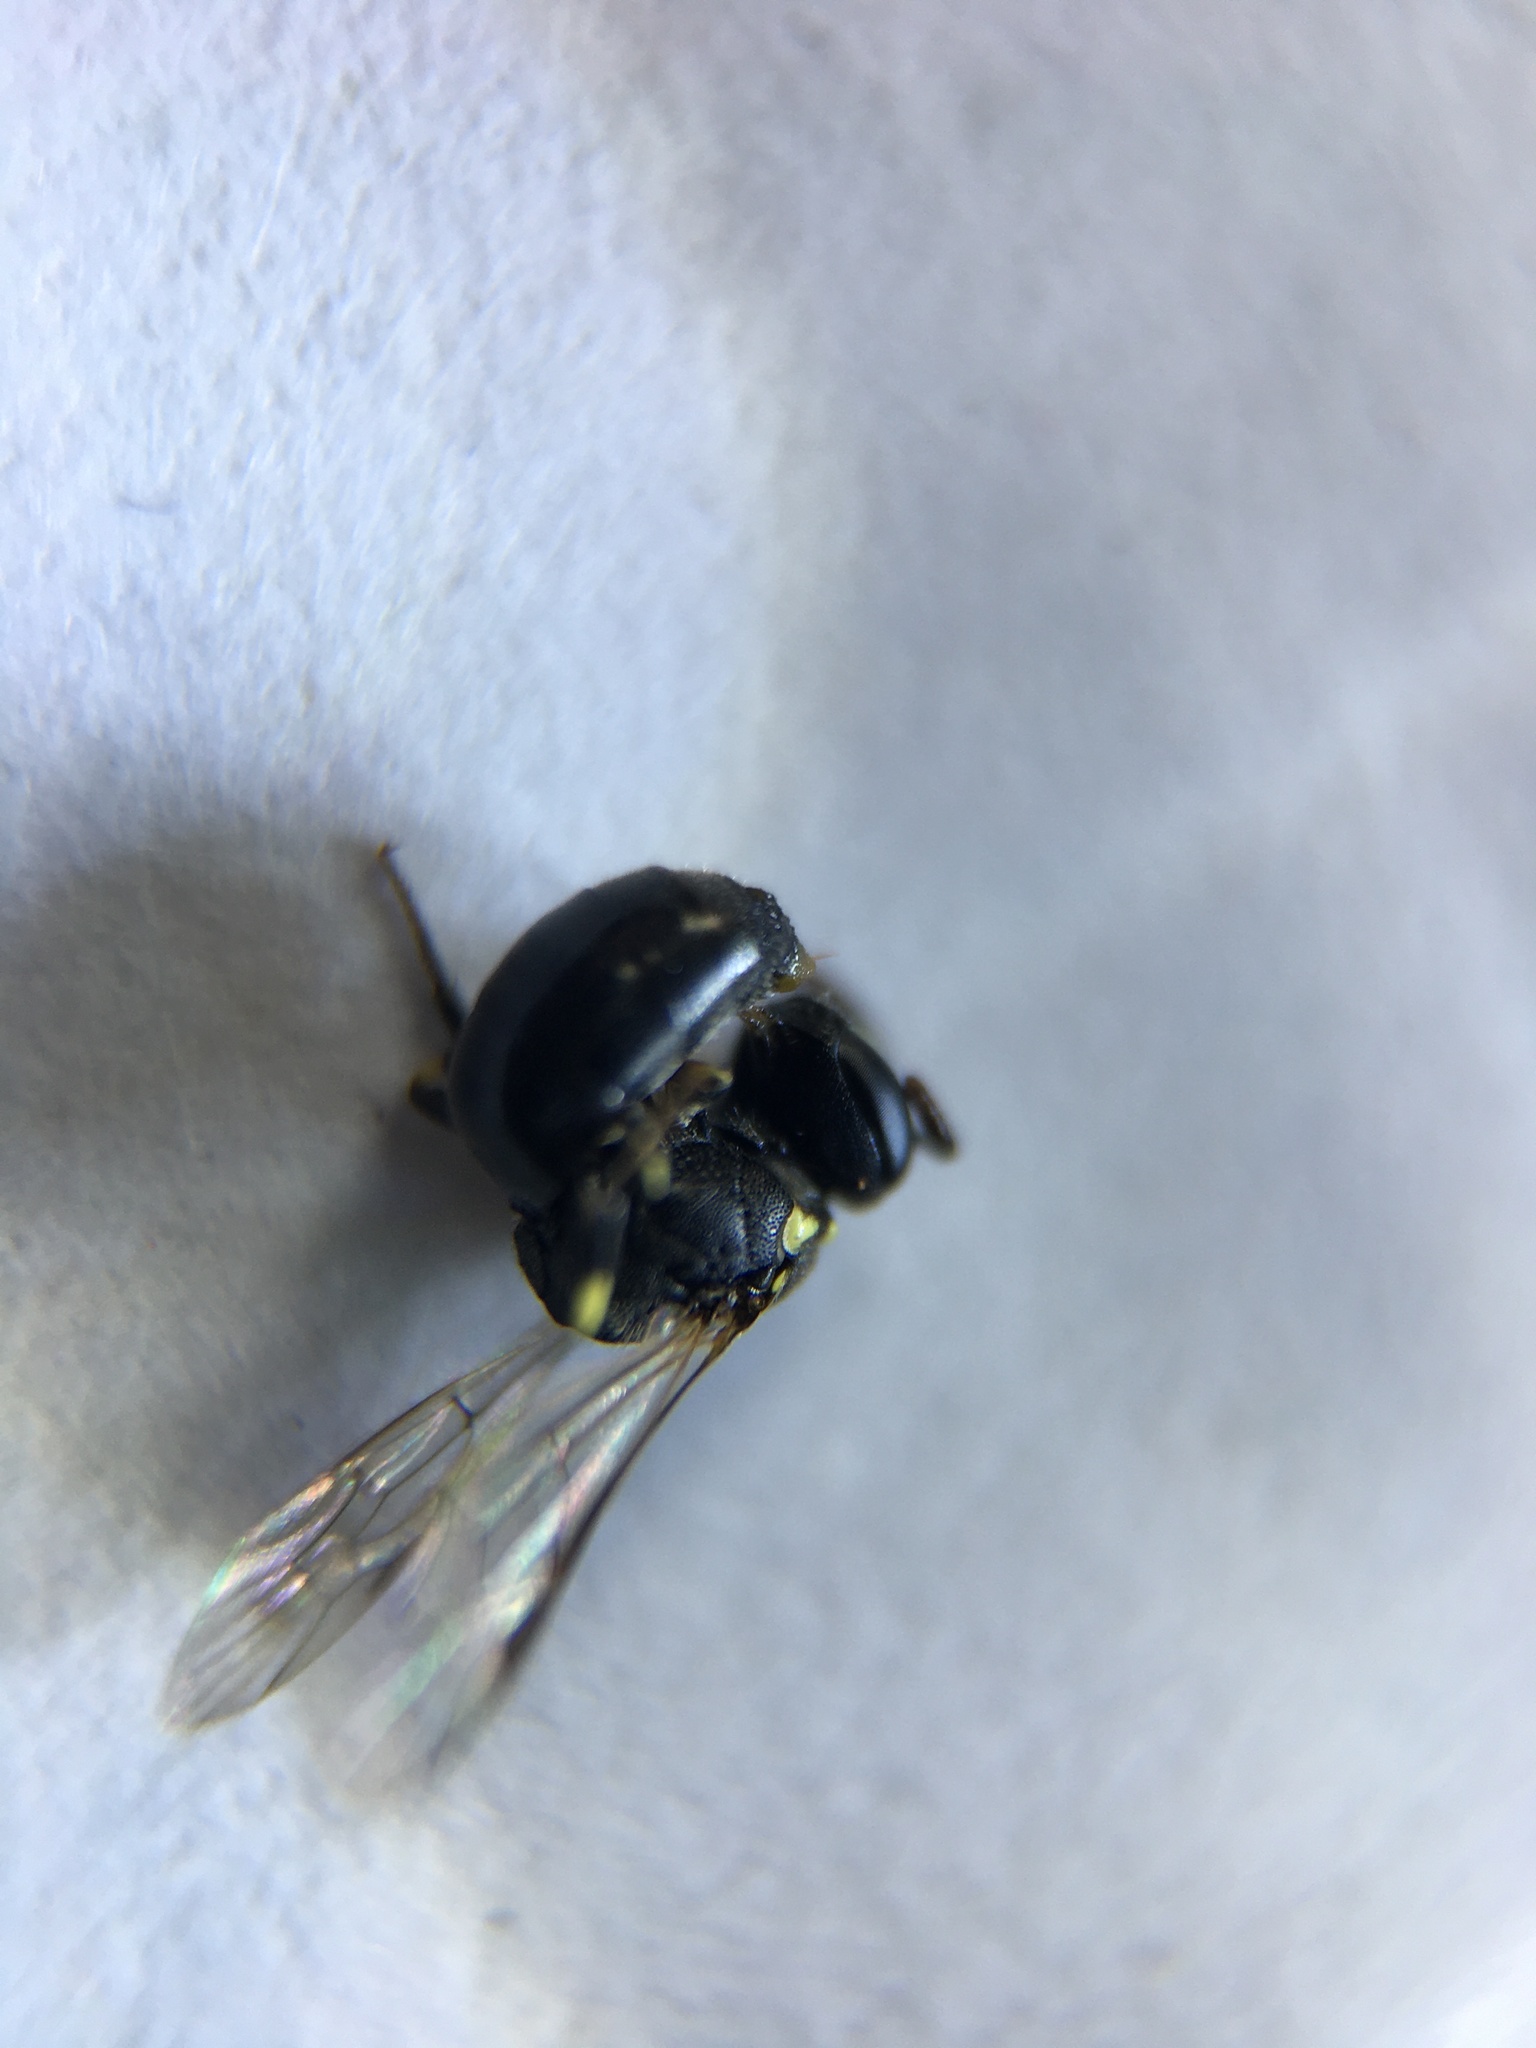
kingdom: Animalia
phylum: Arthropoda
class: Insecta
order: Hymenoptera
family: Colletidae
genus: Hylaeus
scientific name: Hylaeus
